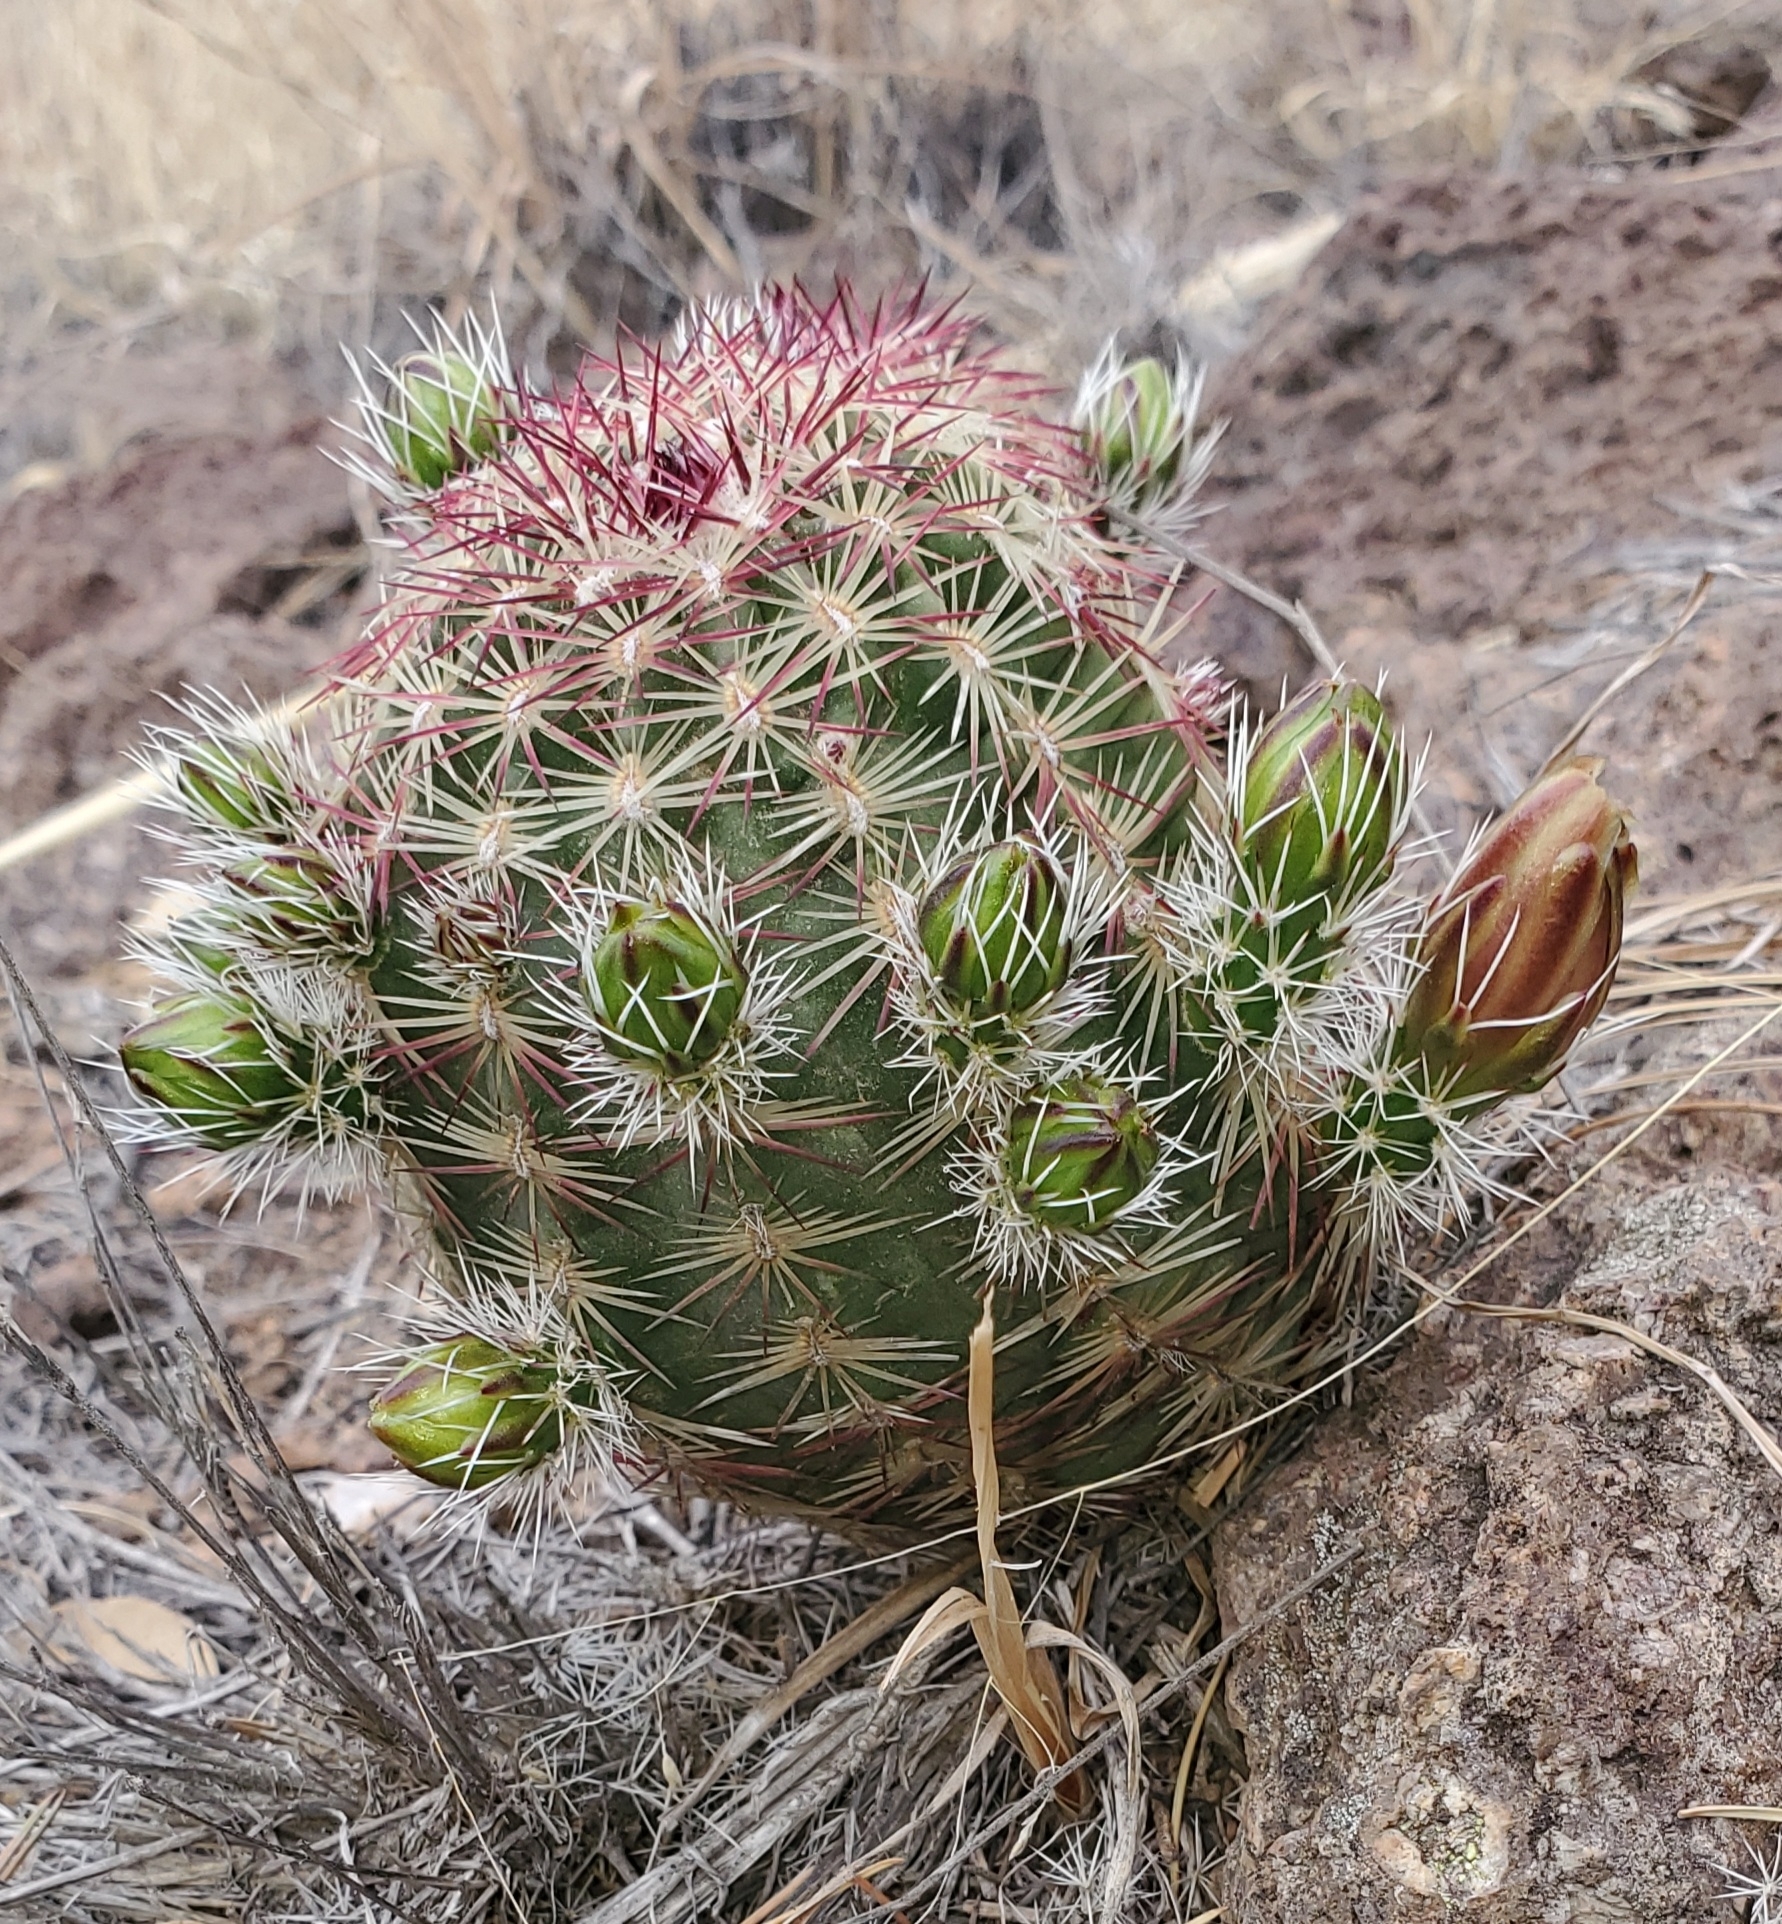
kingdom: Plantae
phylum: Tracheophyta
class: Magnoliopsida
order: Caryophyllales
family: Cactaceae
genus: Echinocereus
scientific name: Echinocereus viridiflorus
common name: Nylon hedgehog cactus
